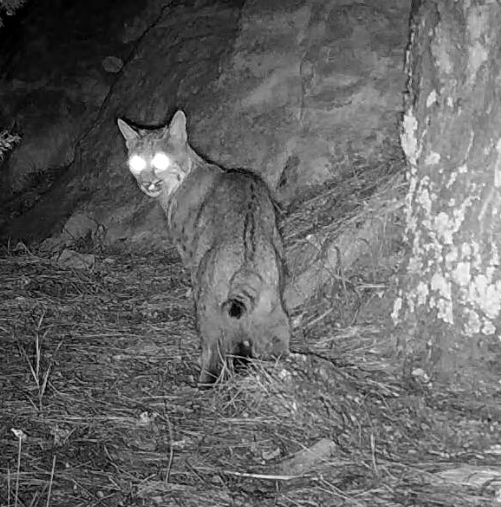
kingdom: Animalia
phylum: Chordata
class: Mammalia
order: Carnivora
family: Felidae
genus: Lynx
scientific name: Lynx rufus
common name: Bobcat
